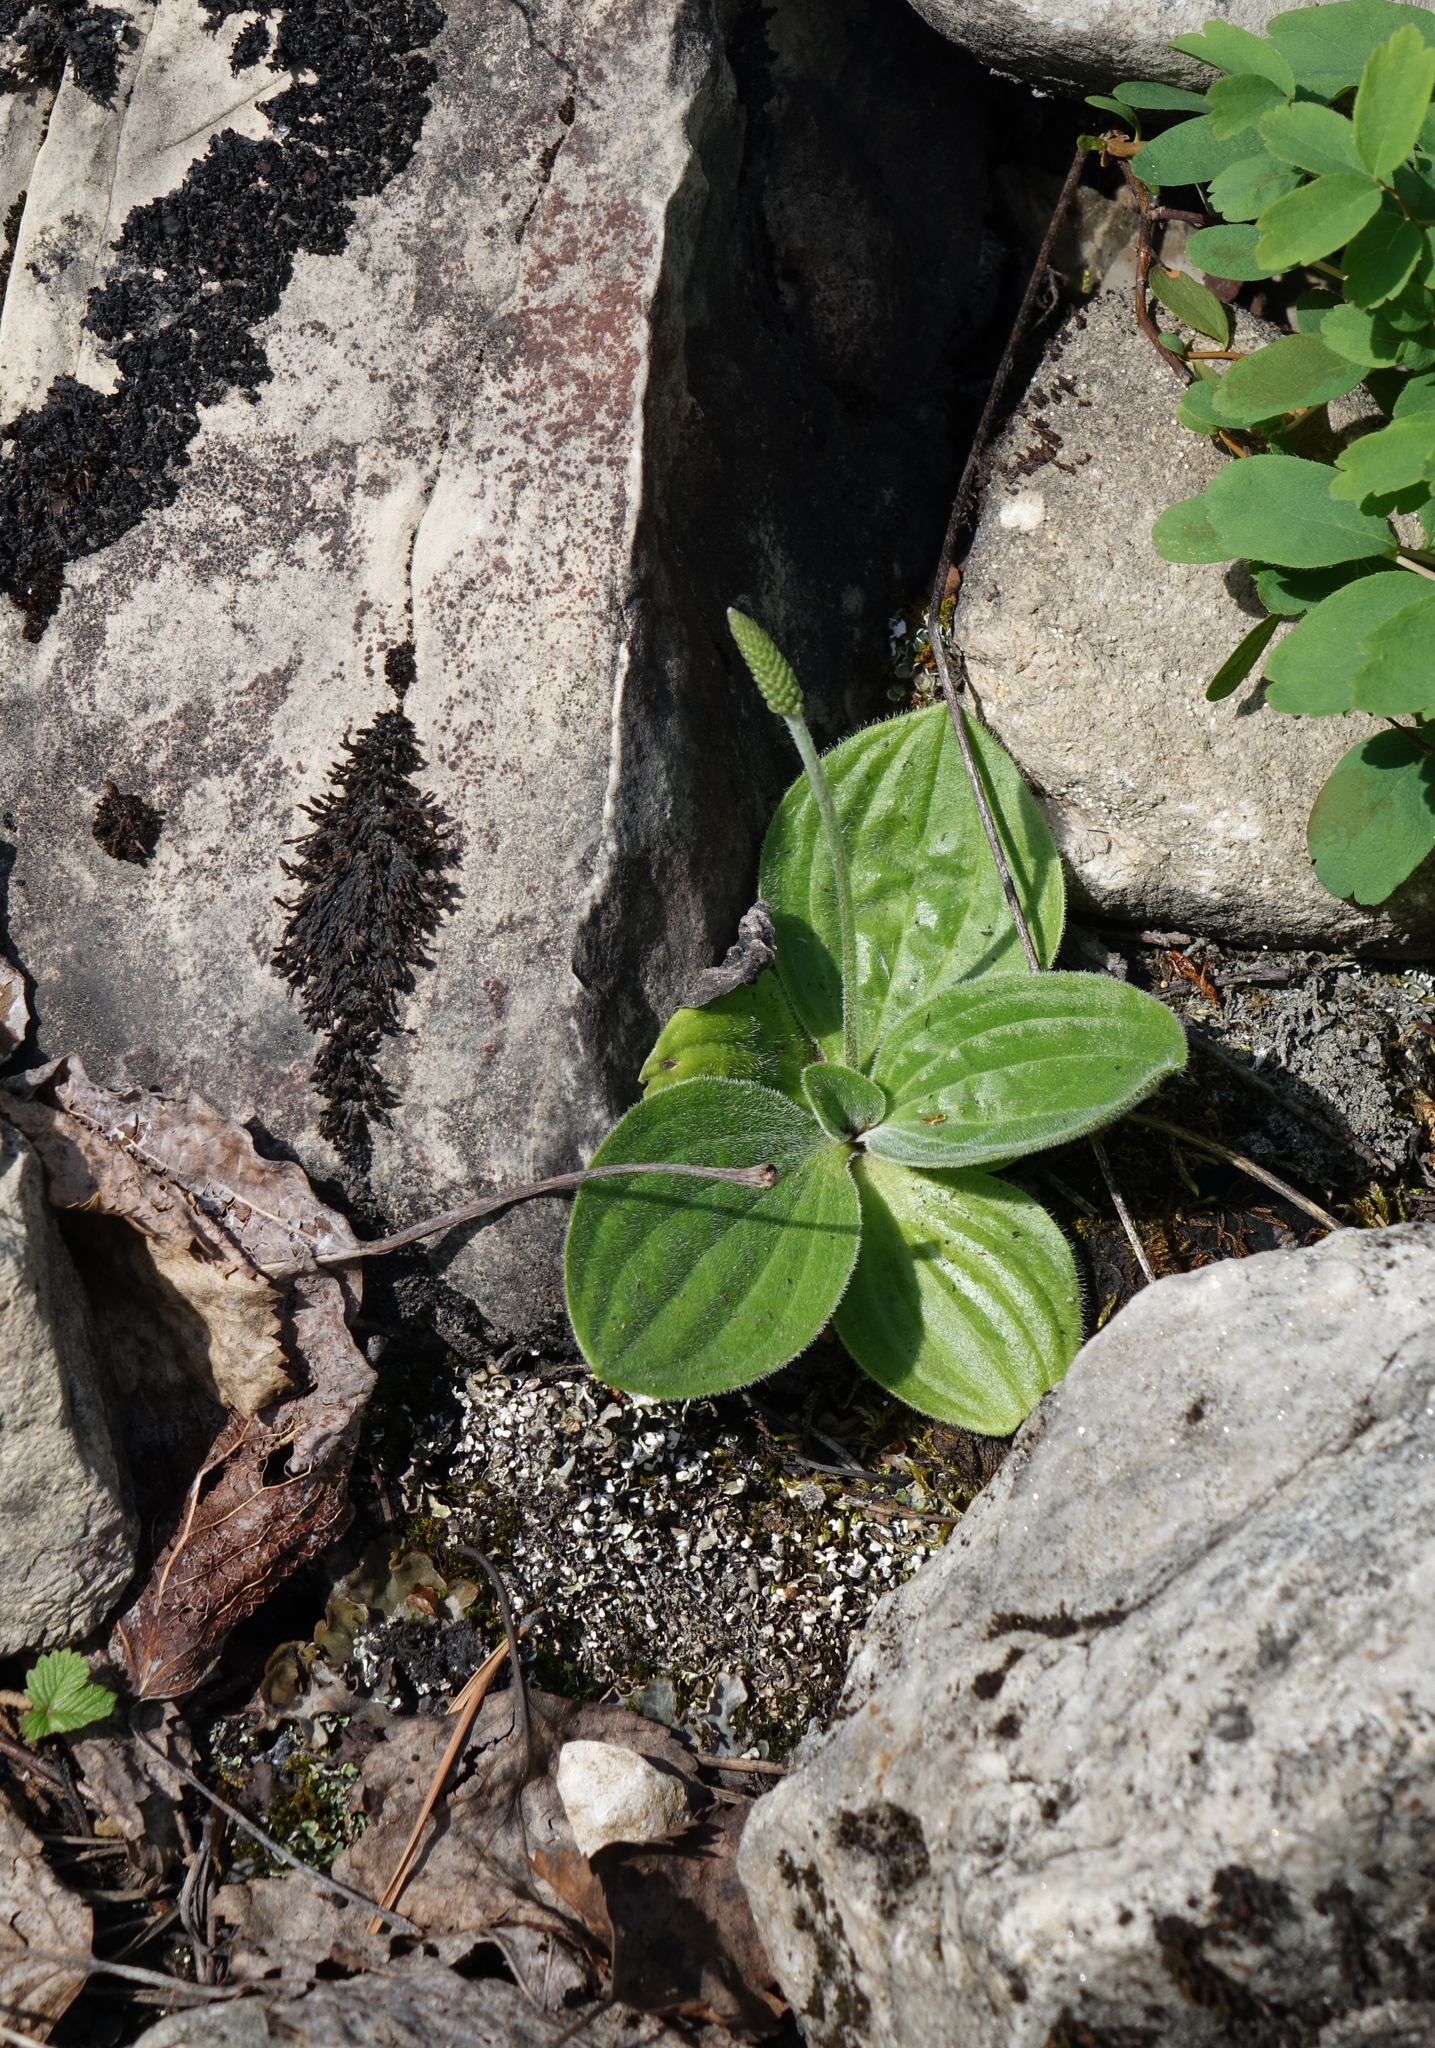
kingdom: Plantae
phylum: Tracheophyta
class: Magnoliopsida
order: Lamiales
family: Plantaginaceae
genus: Plantago
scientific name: Plantago media
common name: Hoary plantain
